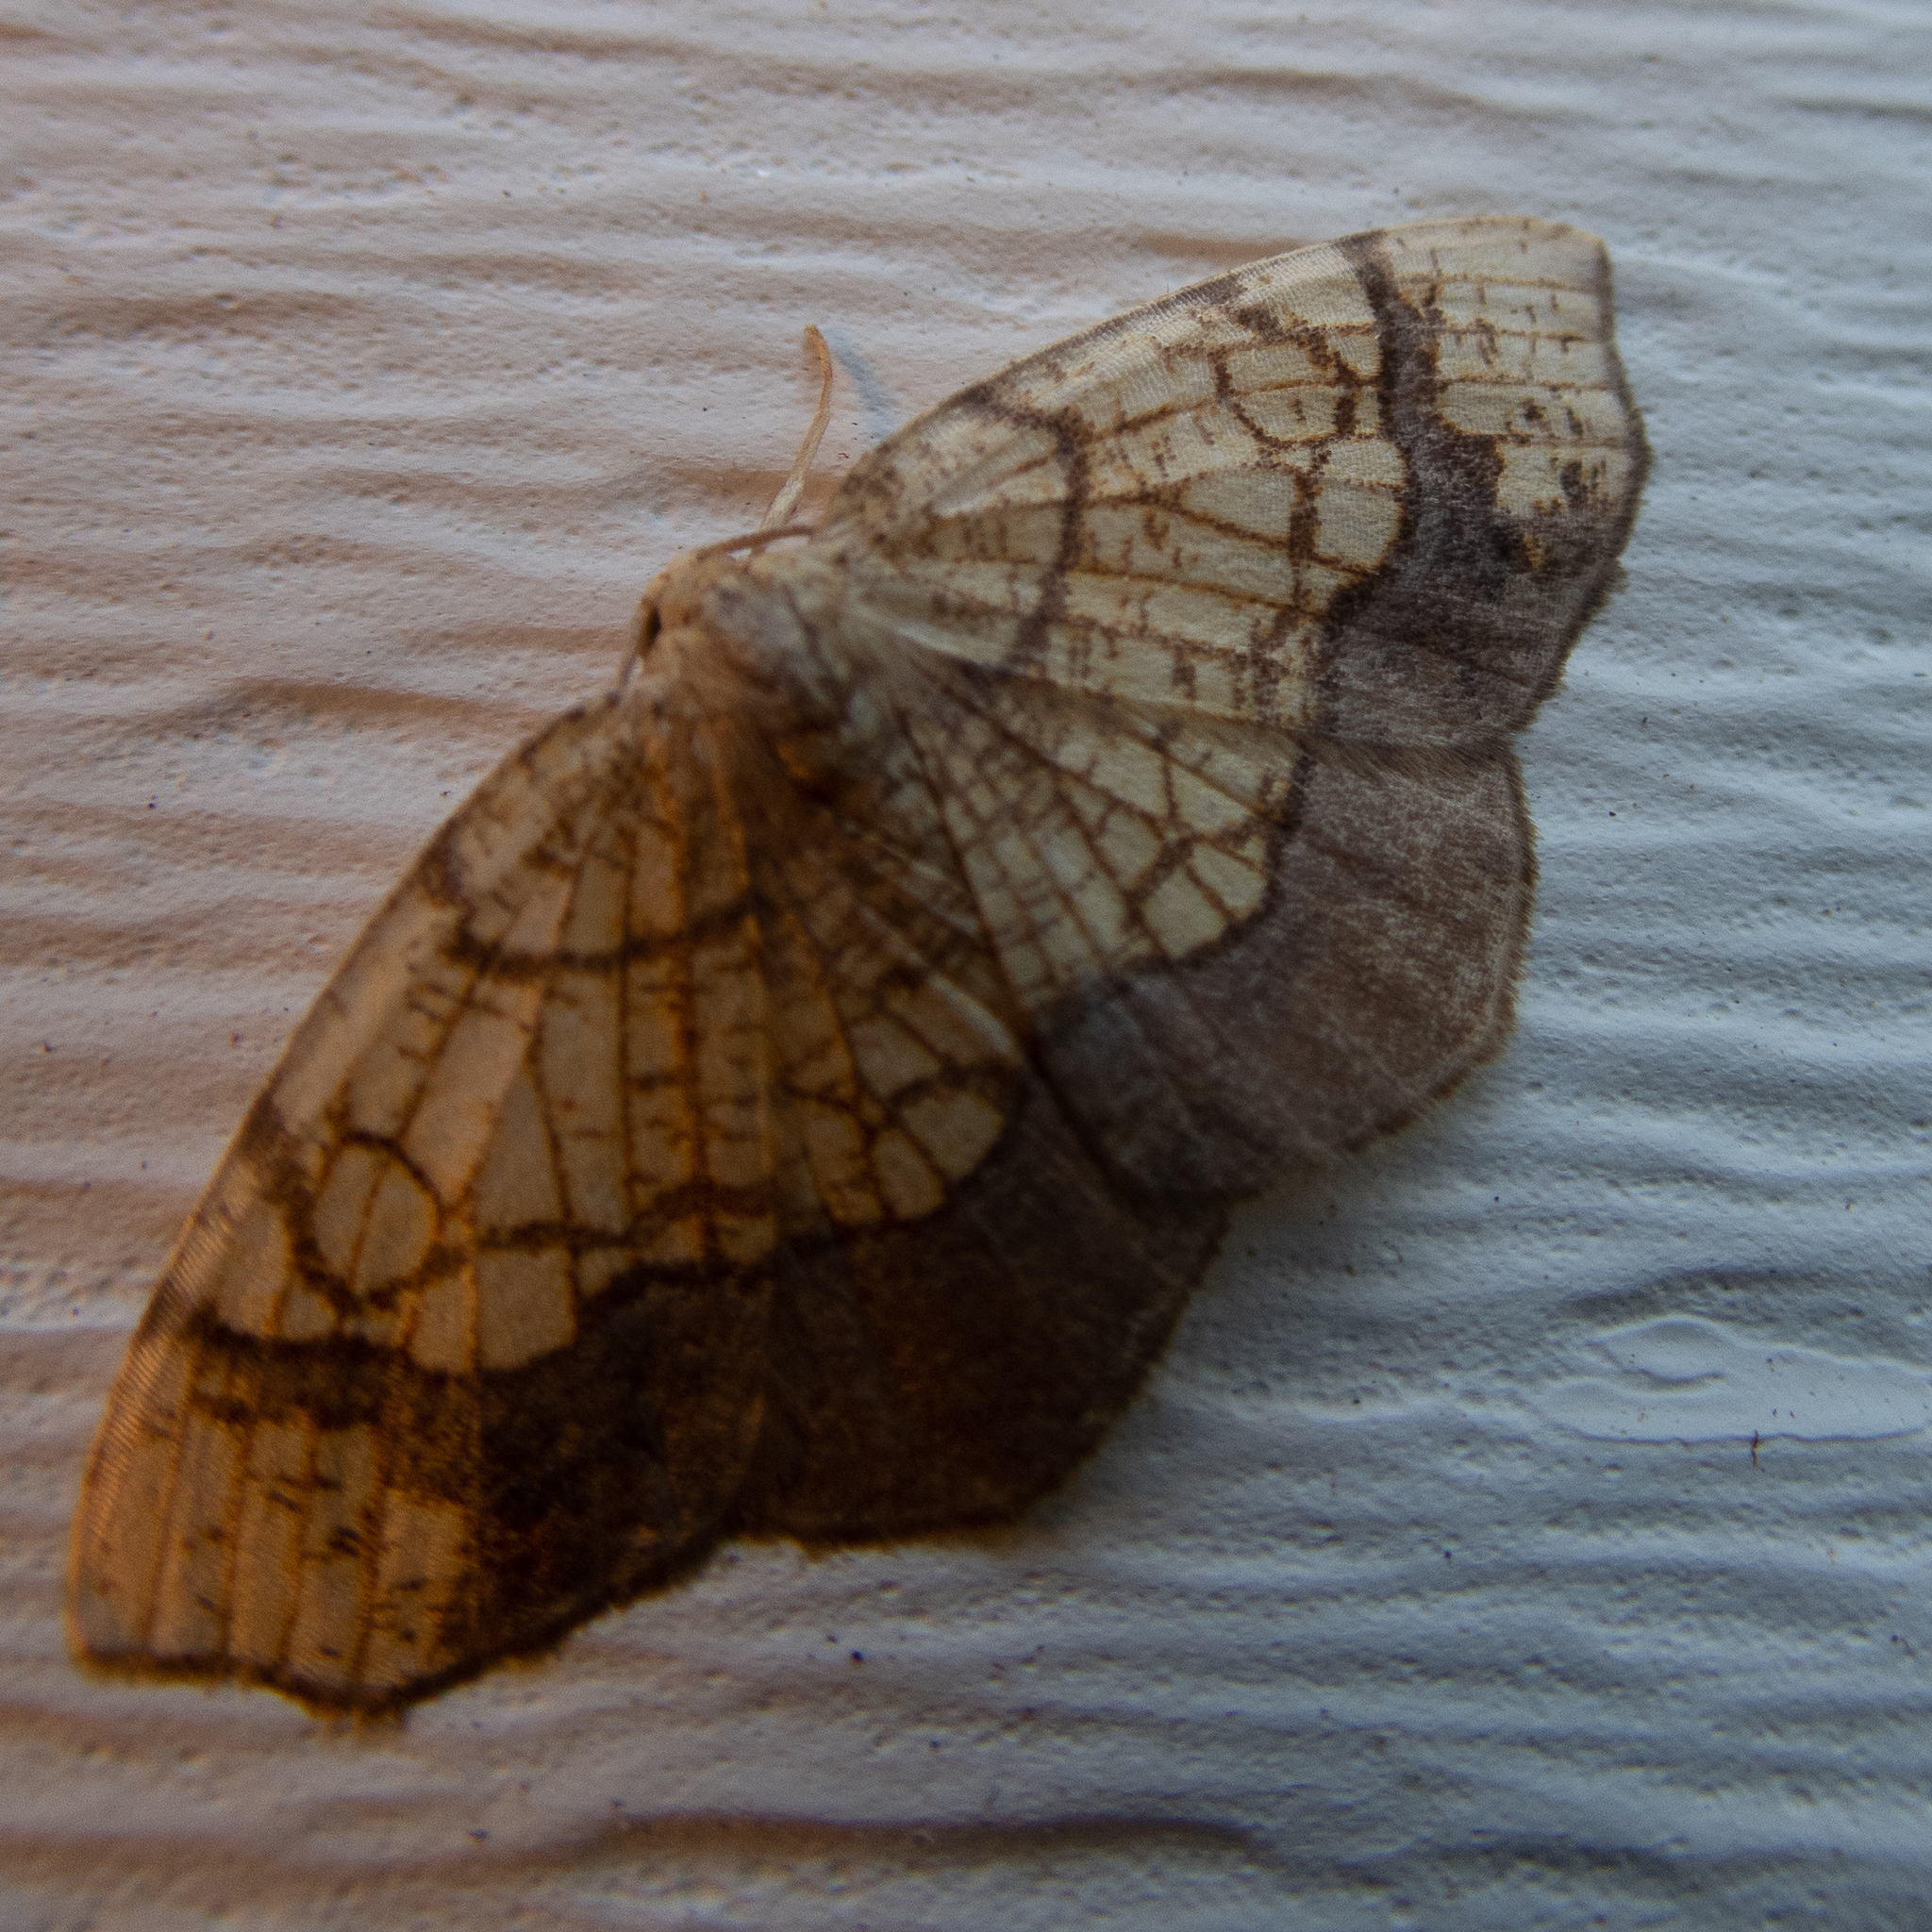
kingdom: Animalia
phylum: Arthropoda
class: Insecta
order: Lepidoptera
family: Geometridae
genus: Nematocampa
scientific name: Nematocampa resistaria
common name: Horned spanworm moth
